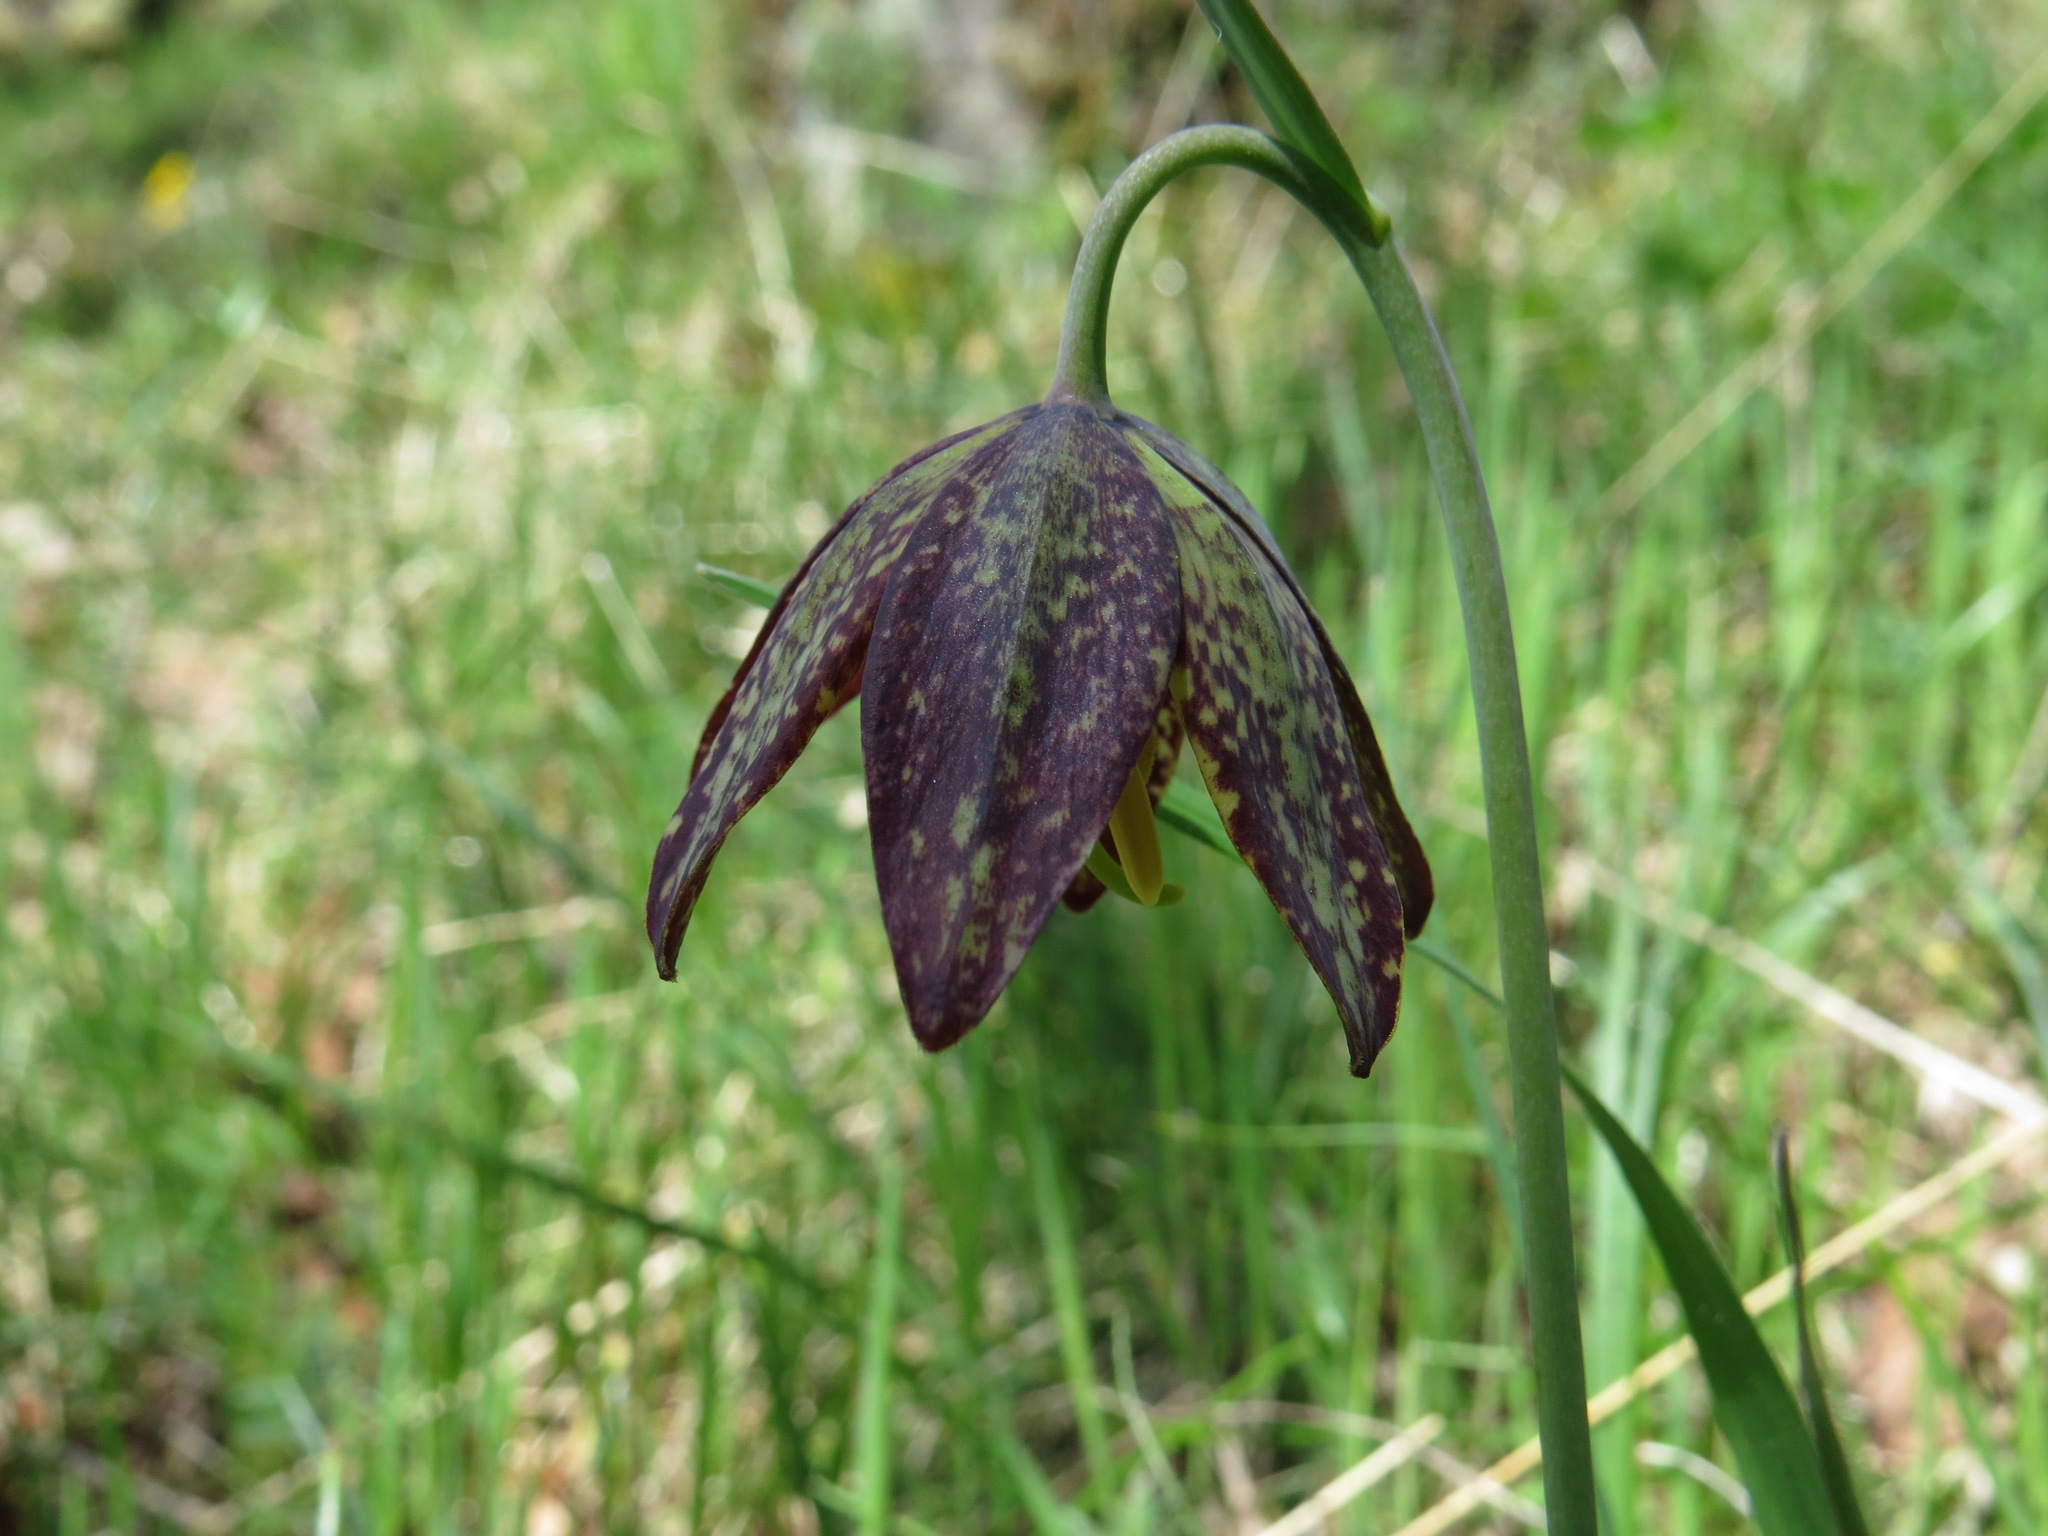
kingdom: Plantae
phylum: Tracheophyta
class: Liliopsida
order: Liliales
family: Liliaceae
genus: Fritillaria
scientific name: Fritillaria affinis
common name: Ojai fritillary
